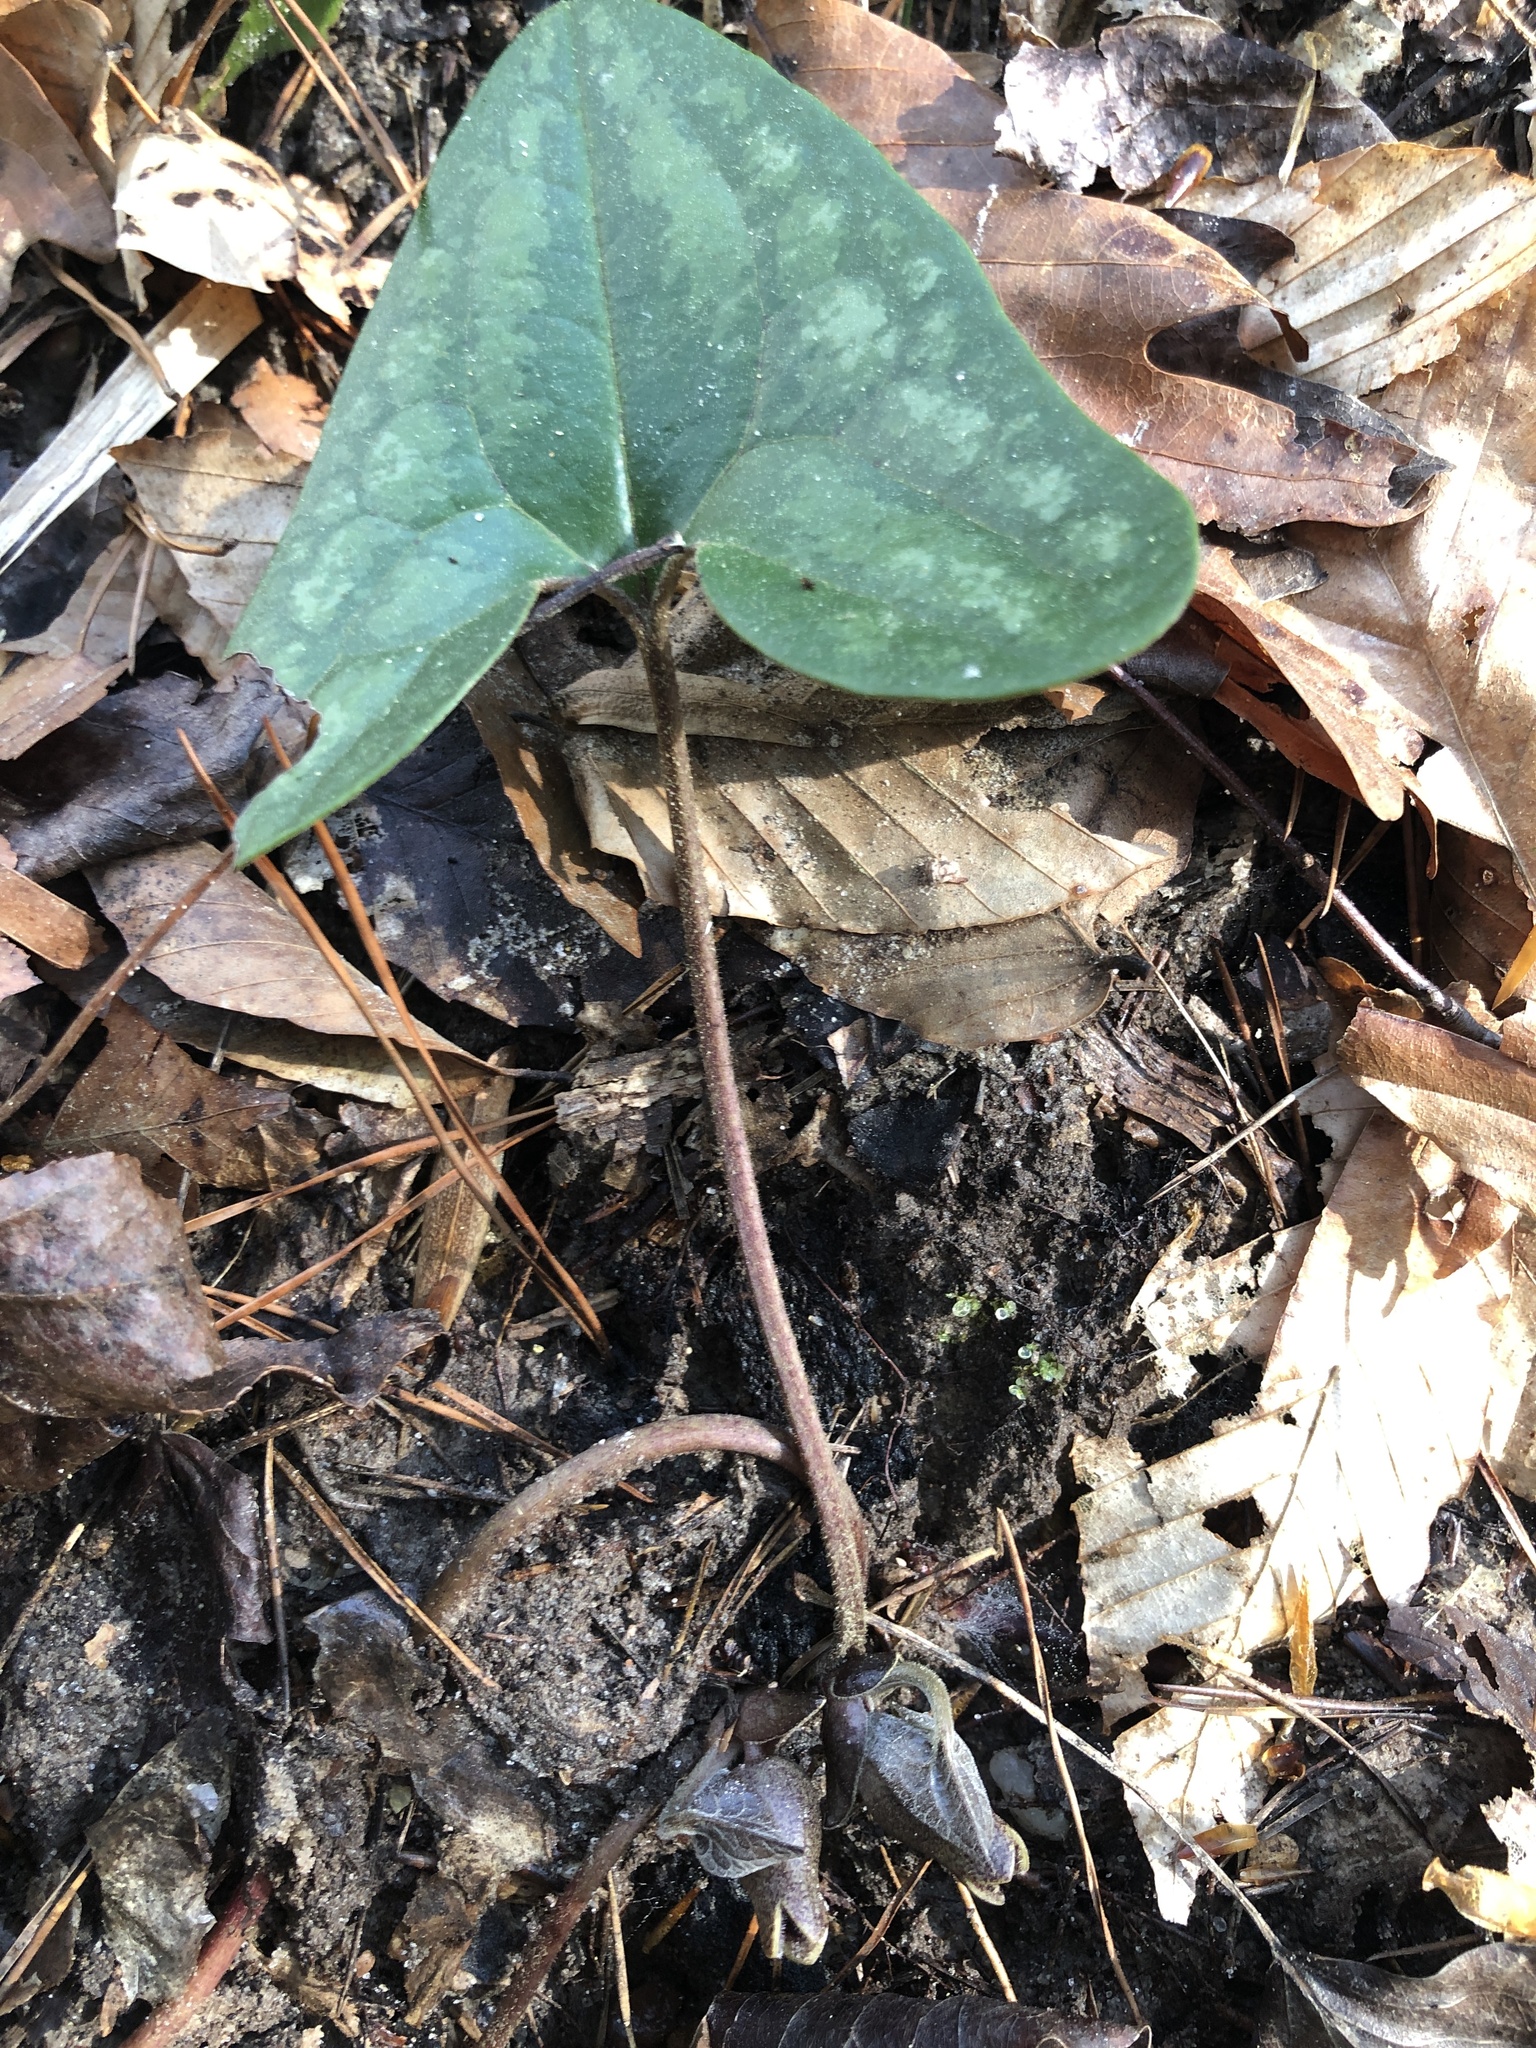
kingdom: Plantae
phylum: Tracheophyta
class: Magnoliopsida
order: Piperales
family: Aristolochiaceae
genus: Hexastylis
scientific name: Hexastylis arifolia
